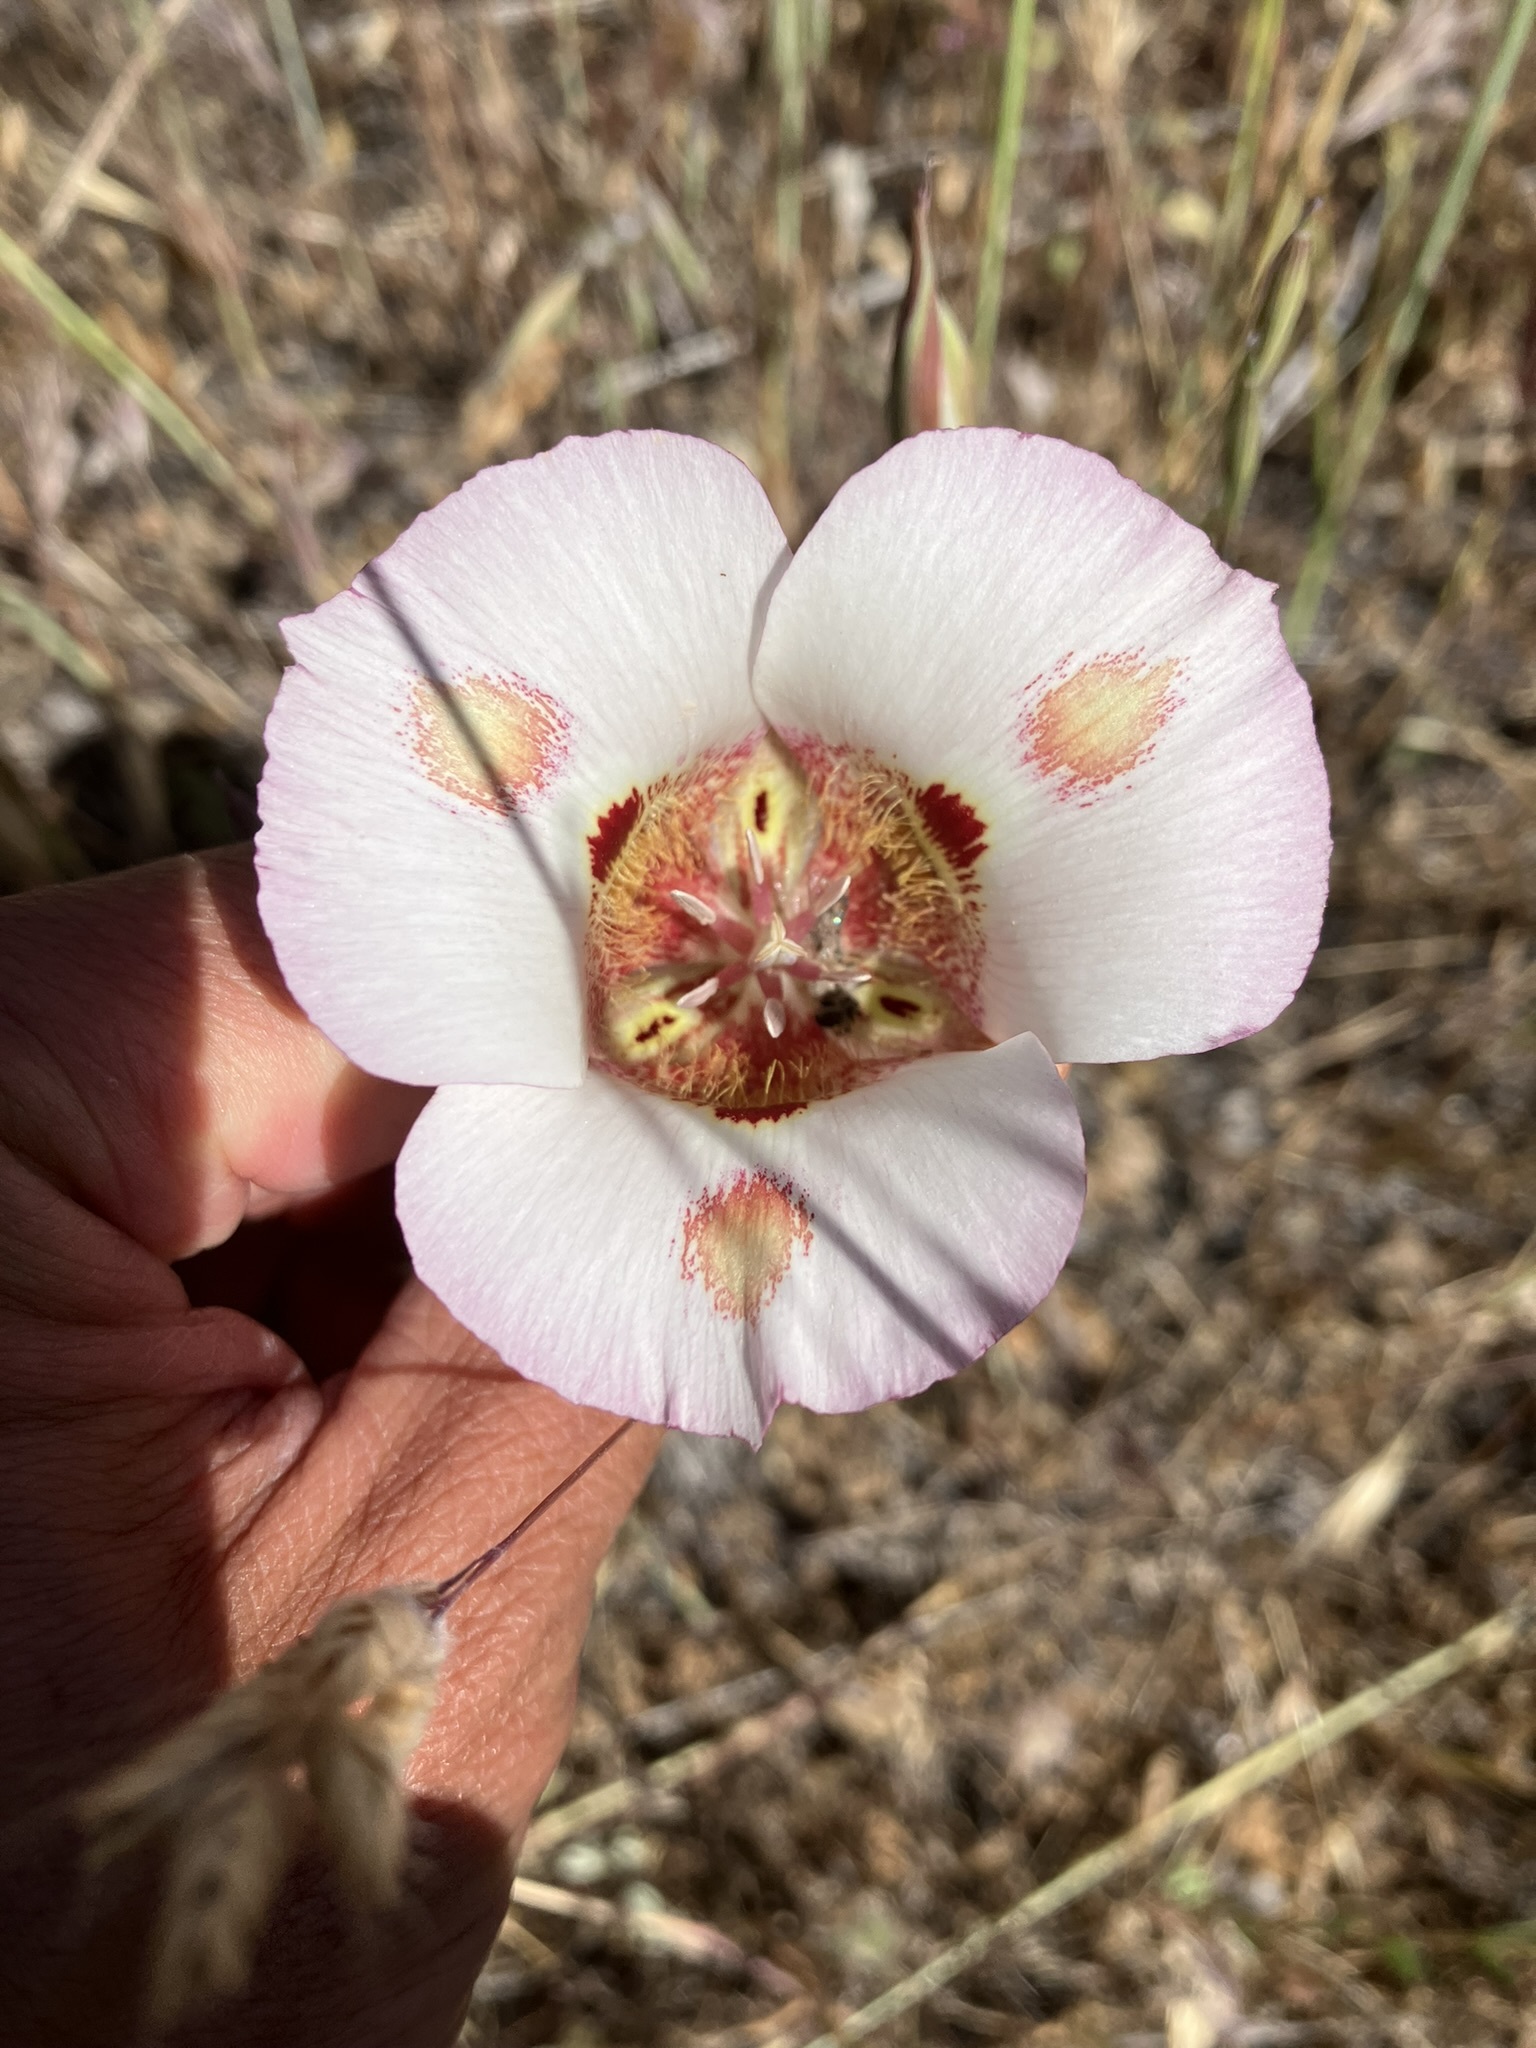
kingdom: Plantae
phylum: Tracheophyta
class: Liliopsida
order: Liliales
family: Liliaceae
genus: Calochortus
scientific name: Calochortus venustus
